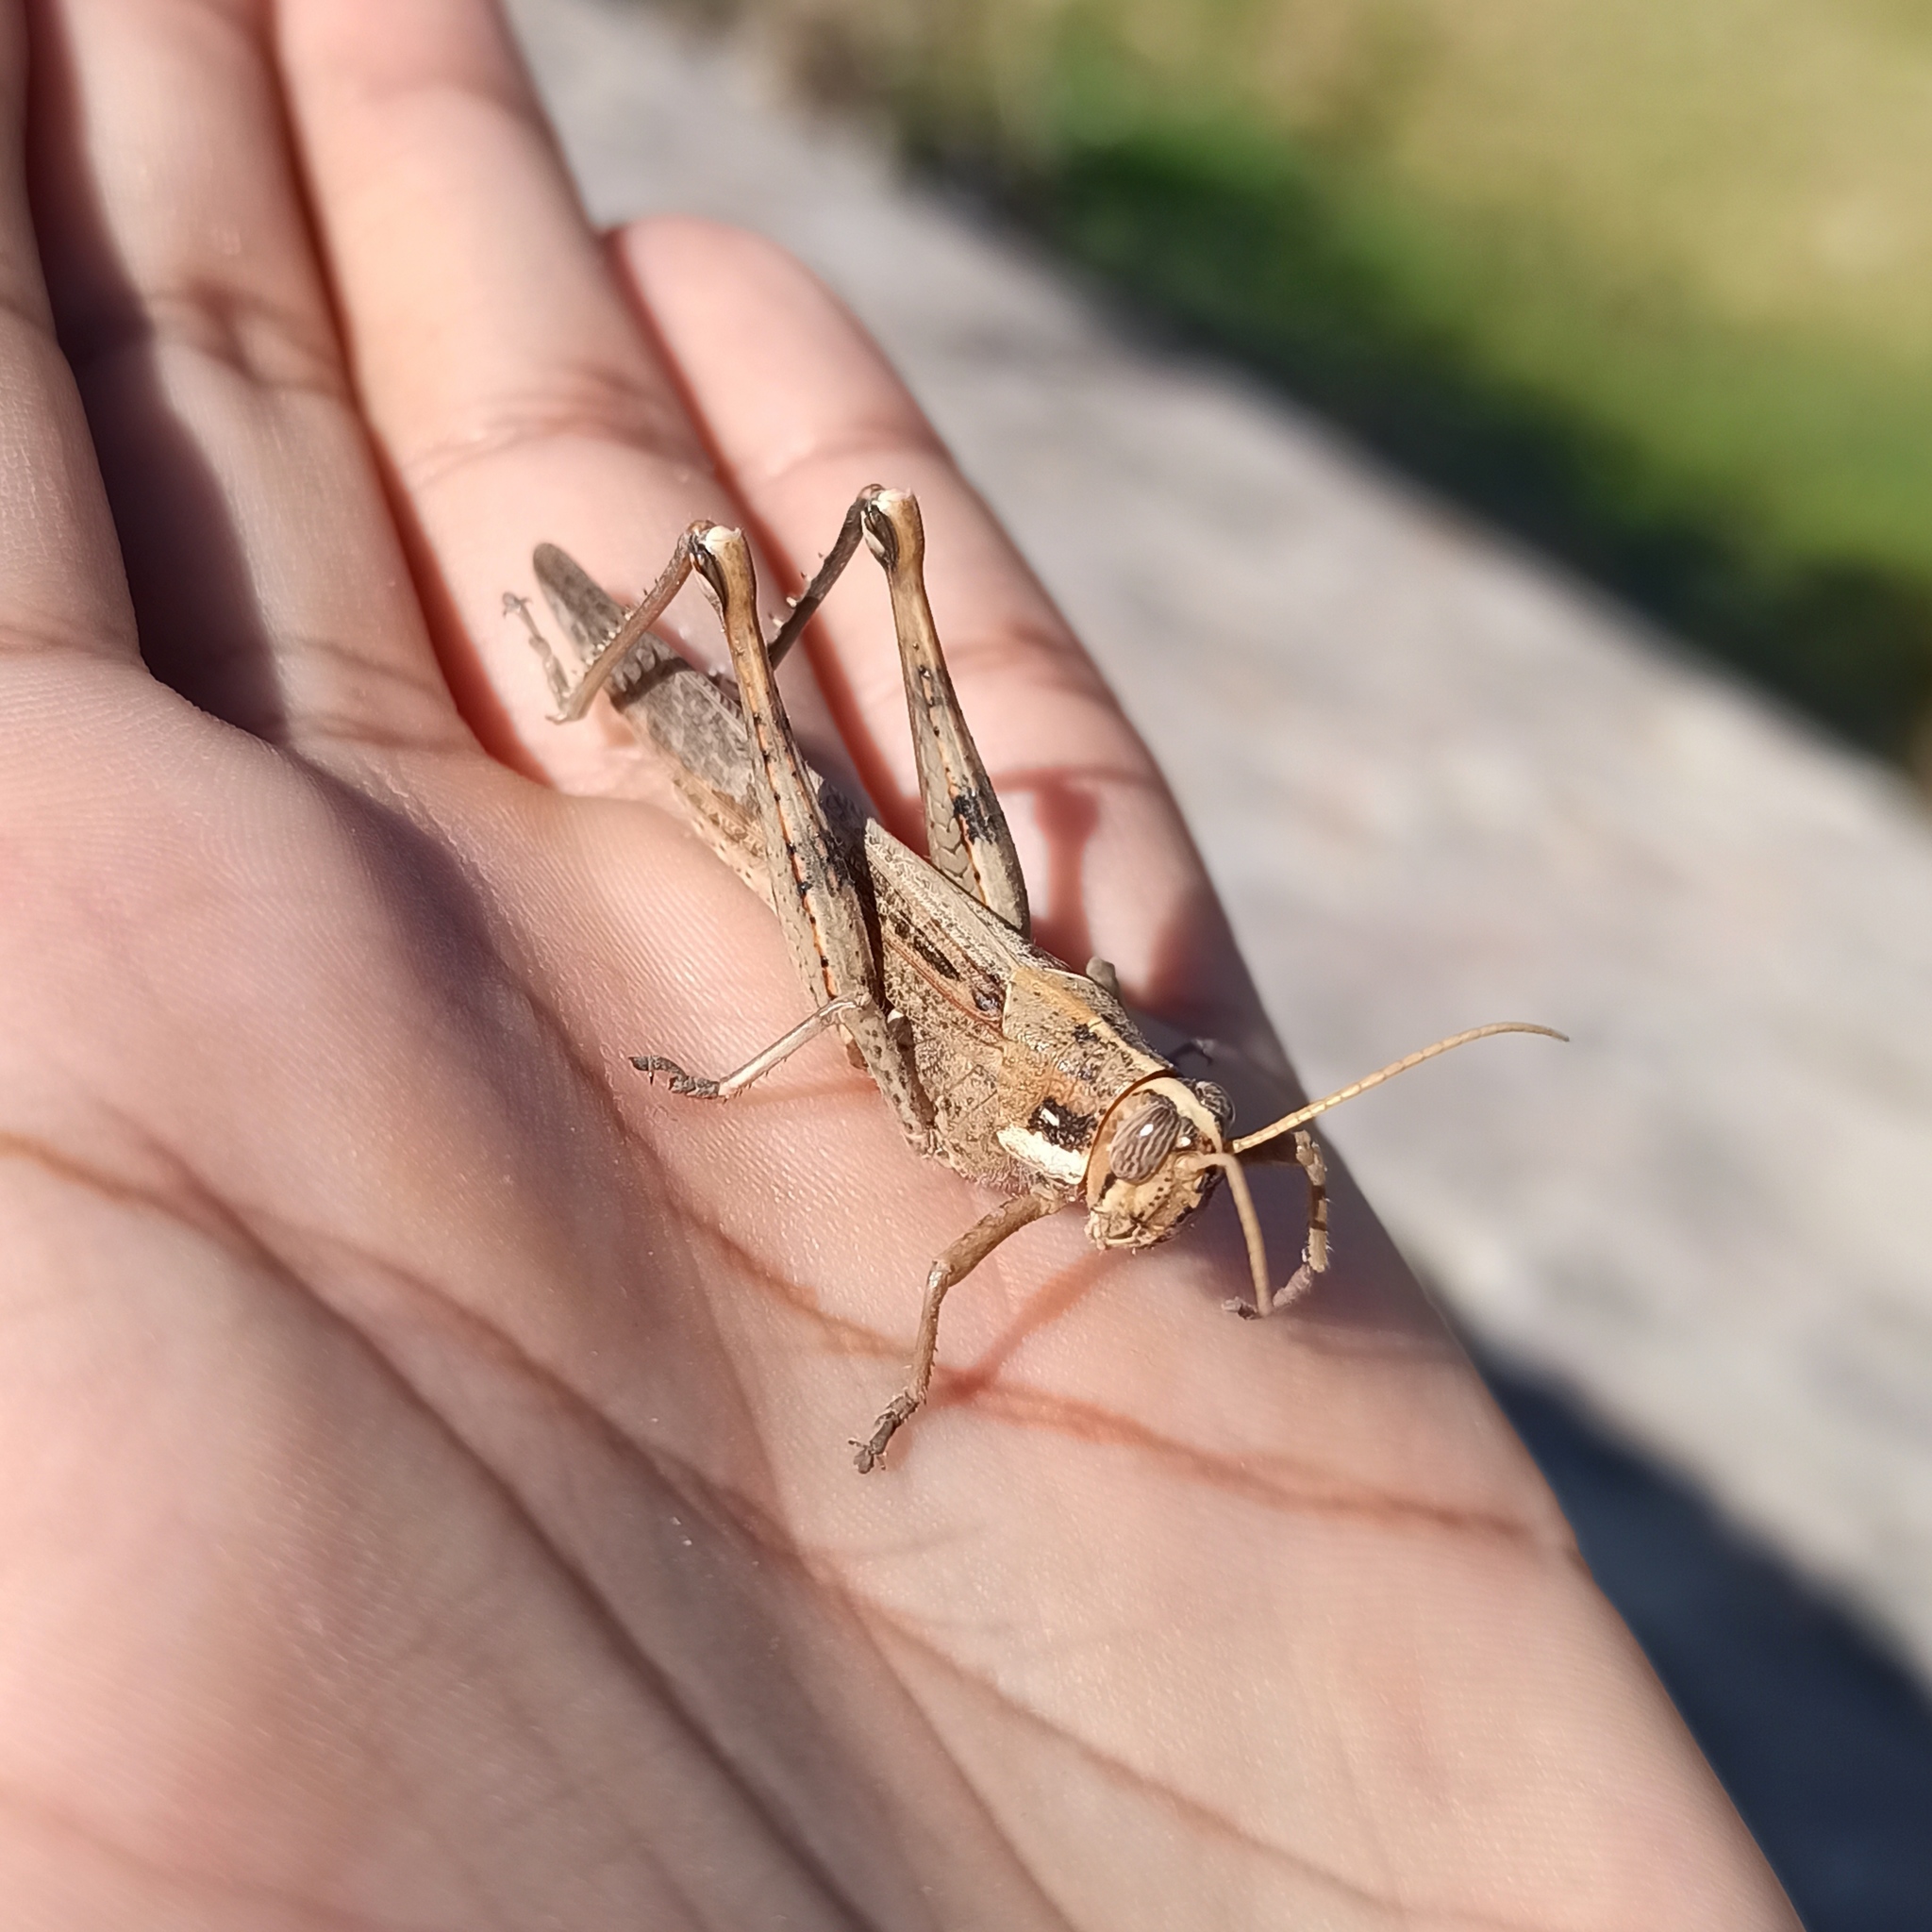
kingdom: Animalia
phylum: Arthropoda
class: Insecta
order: Orthoptera
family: Acrididae
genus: Schistocerca
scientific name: Schistocerca nitens
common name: Vagrant grasshopper
